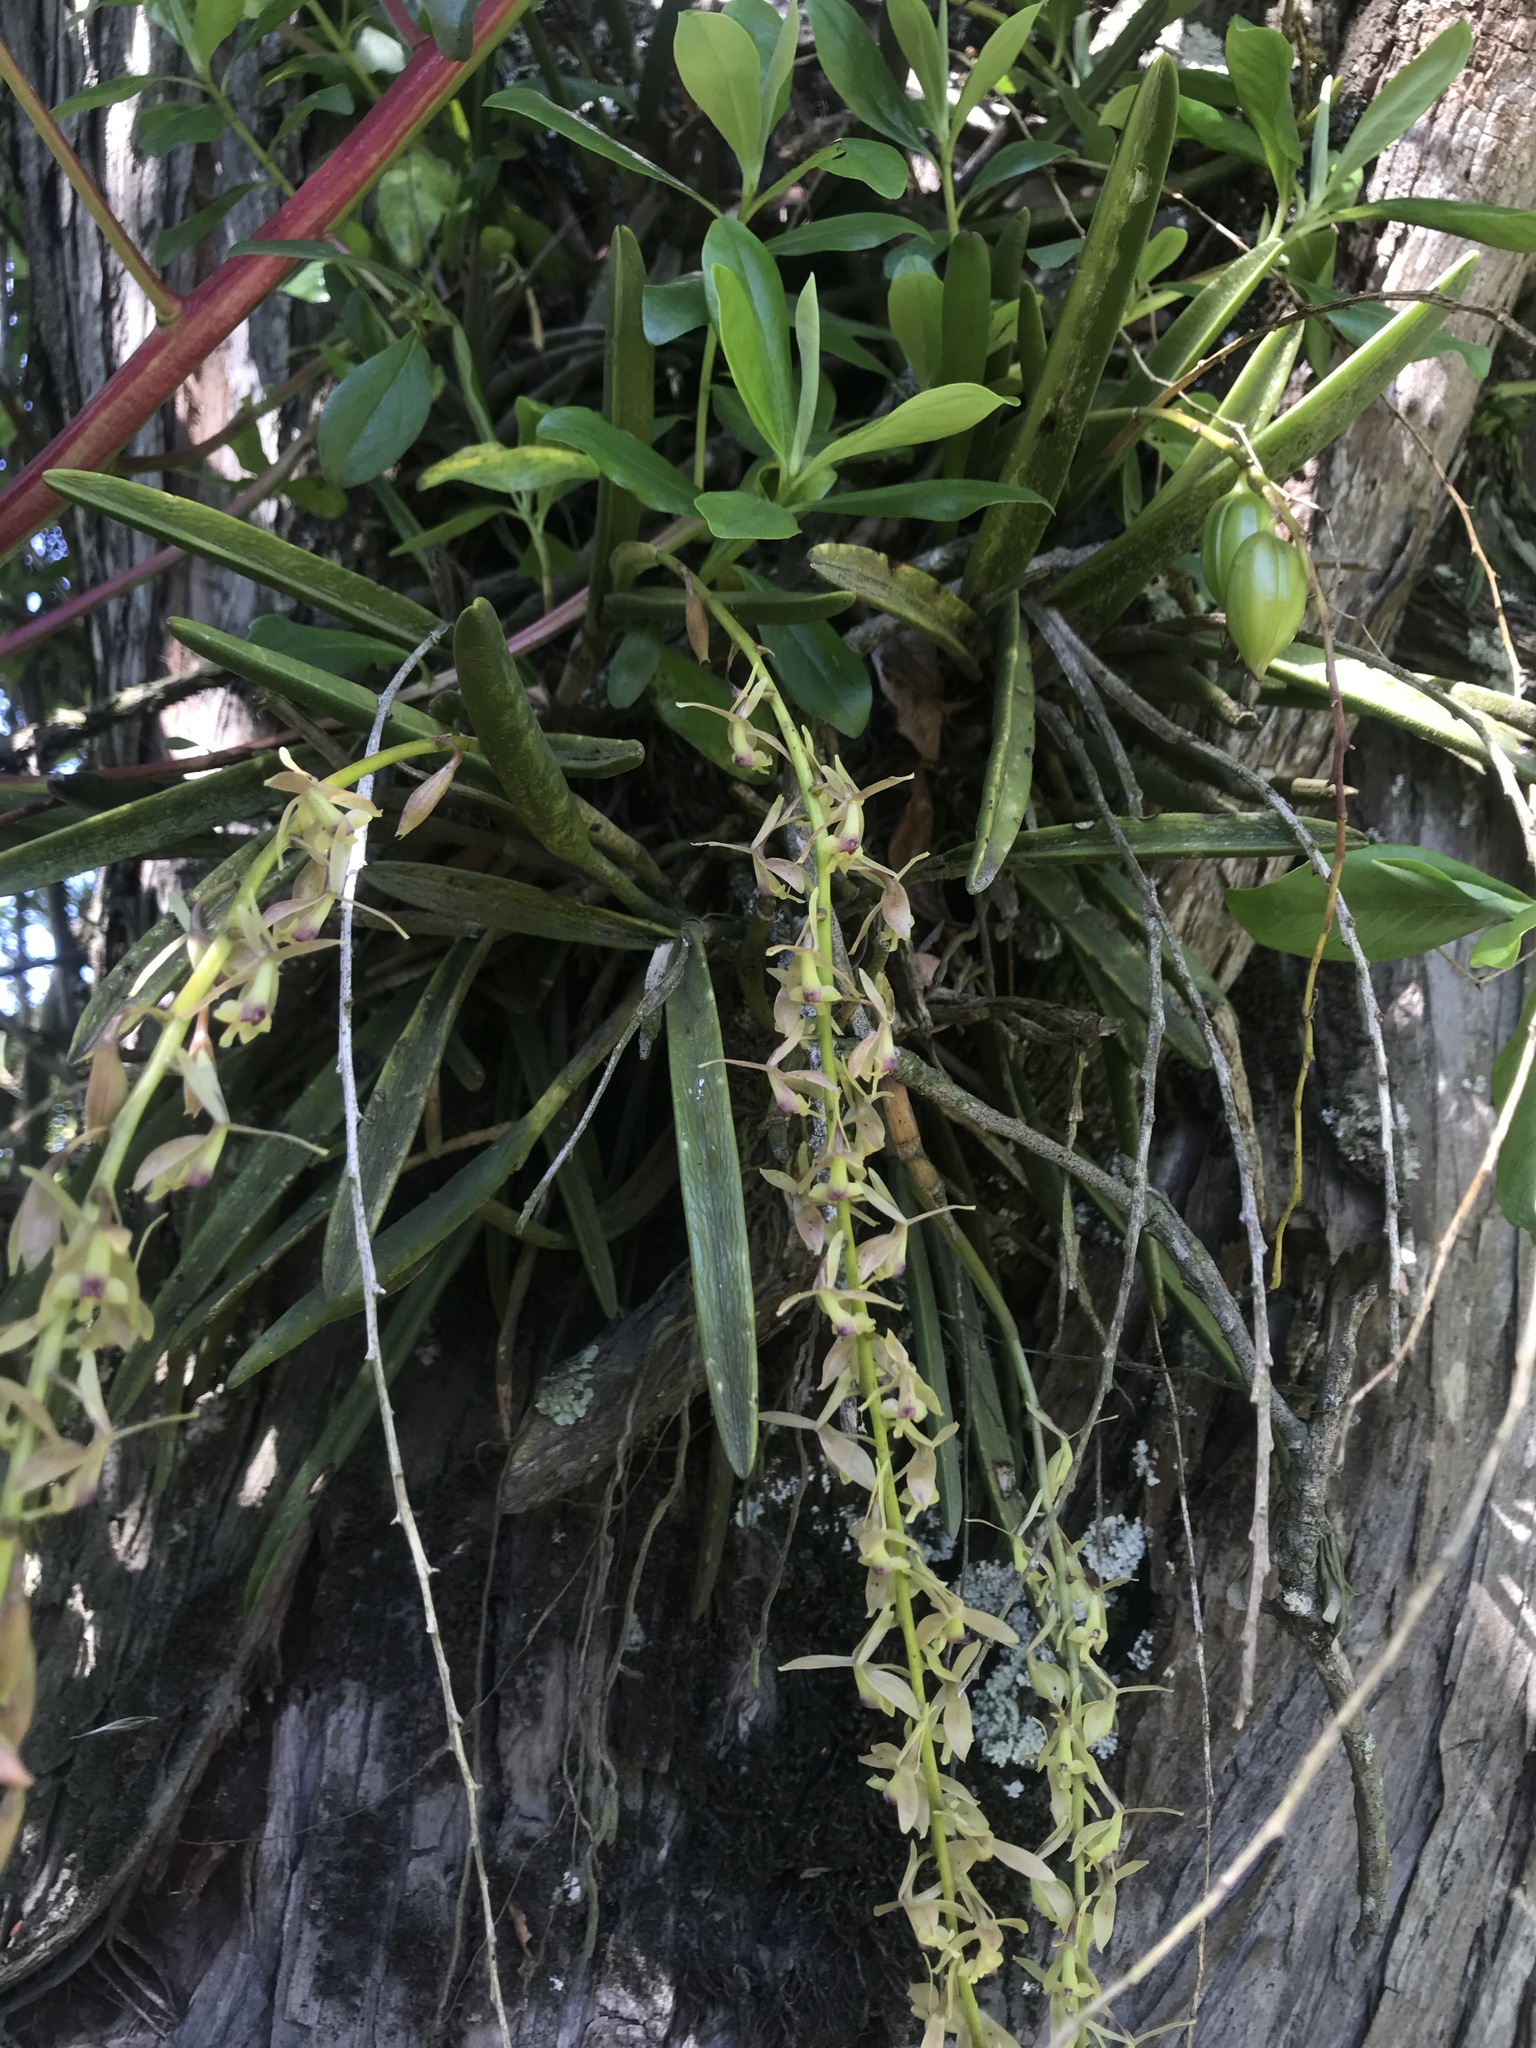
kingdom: Plantae
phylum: Tracheophyta
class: Liliopsida
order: Asparagales
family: Orchidaceae
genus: Epidendrum
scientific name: Epidendrum moritzii
